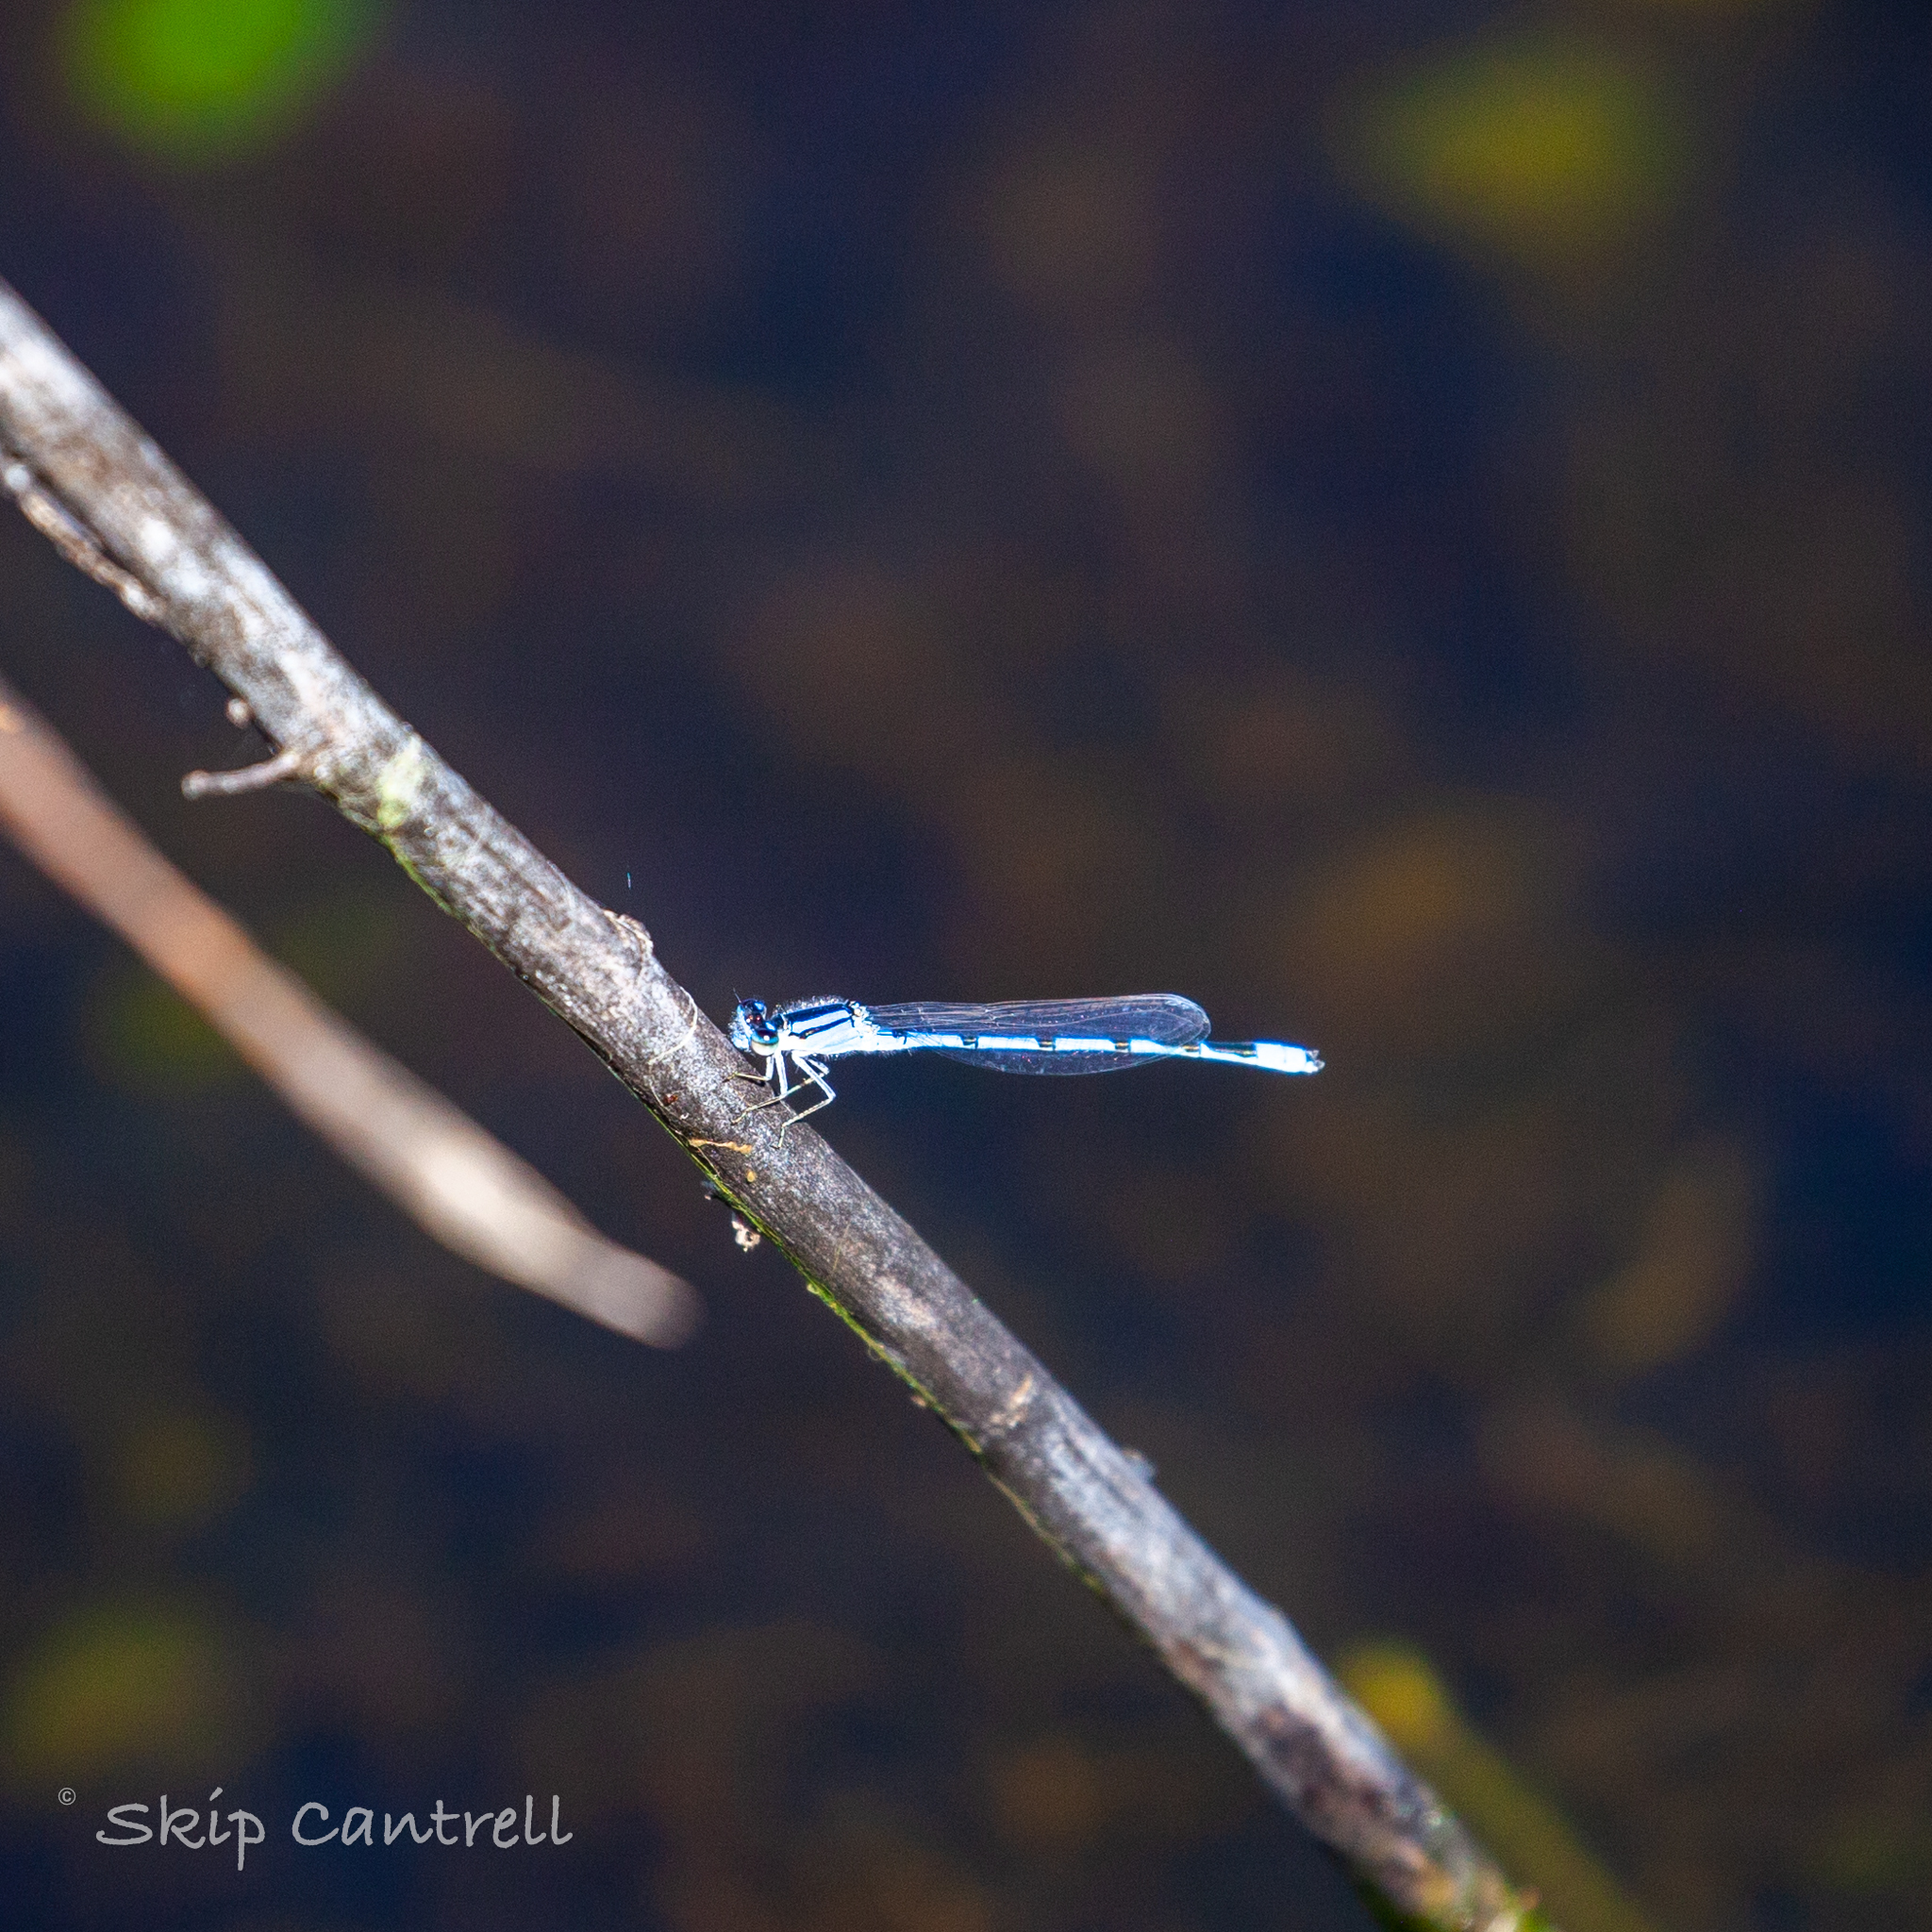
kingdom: Animalia
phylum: Arthropoda
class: Insecta
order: Odonata
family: Coenagrionidae
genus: Enallagma
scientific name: Enallagma civile
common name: Damselfly
